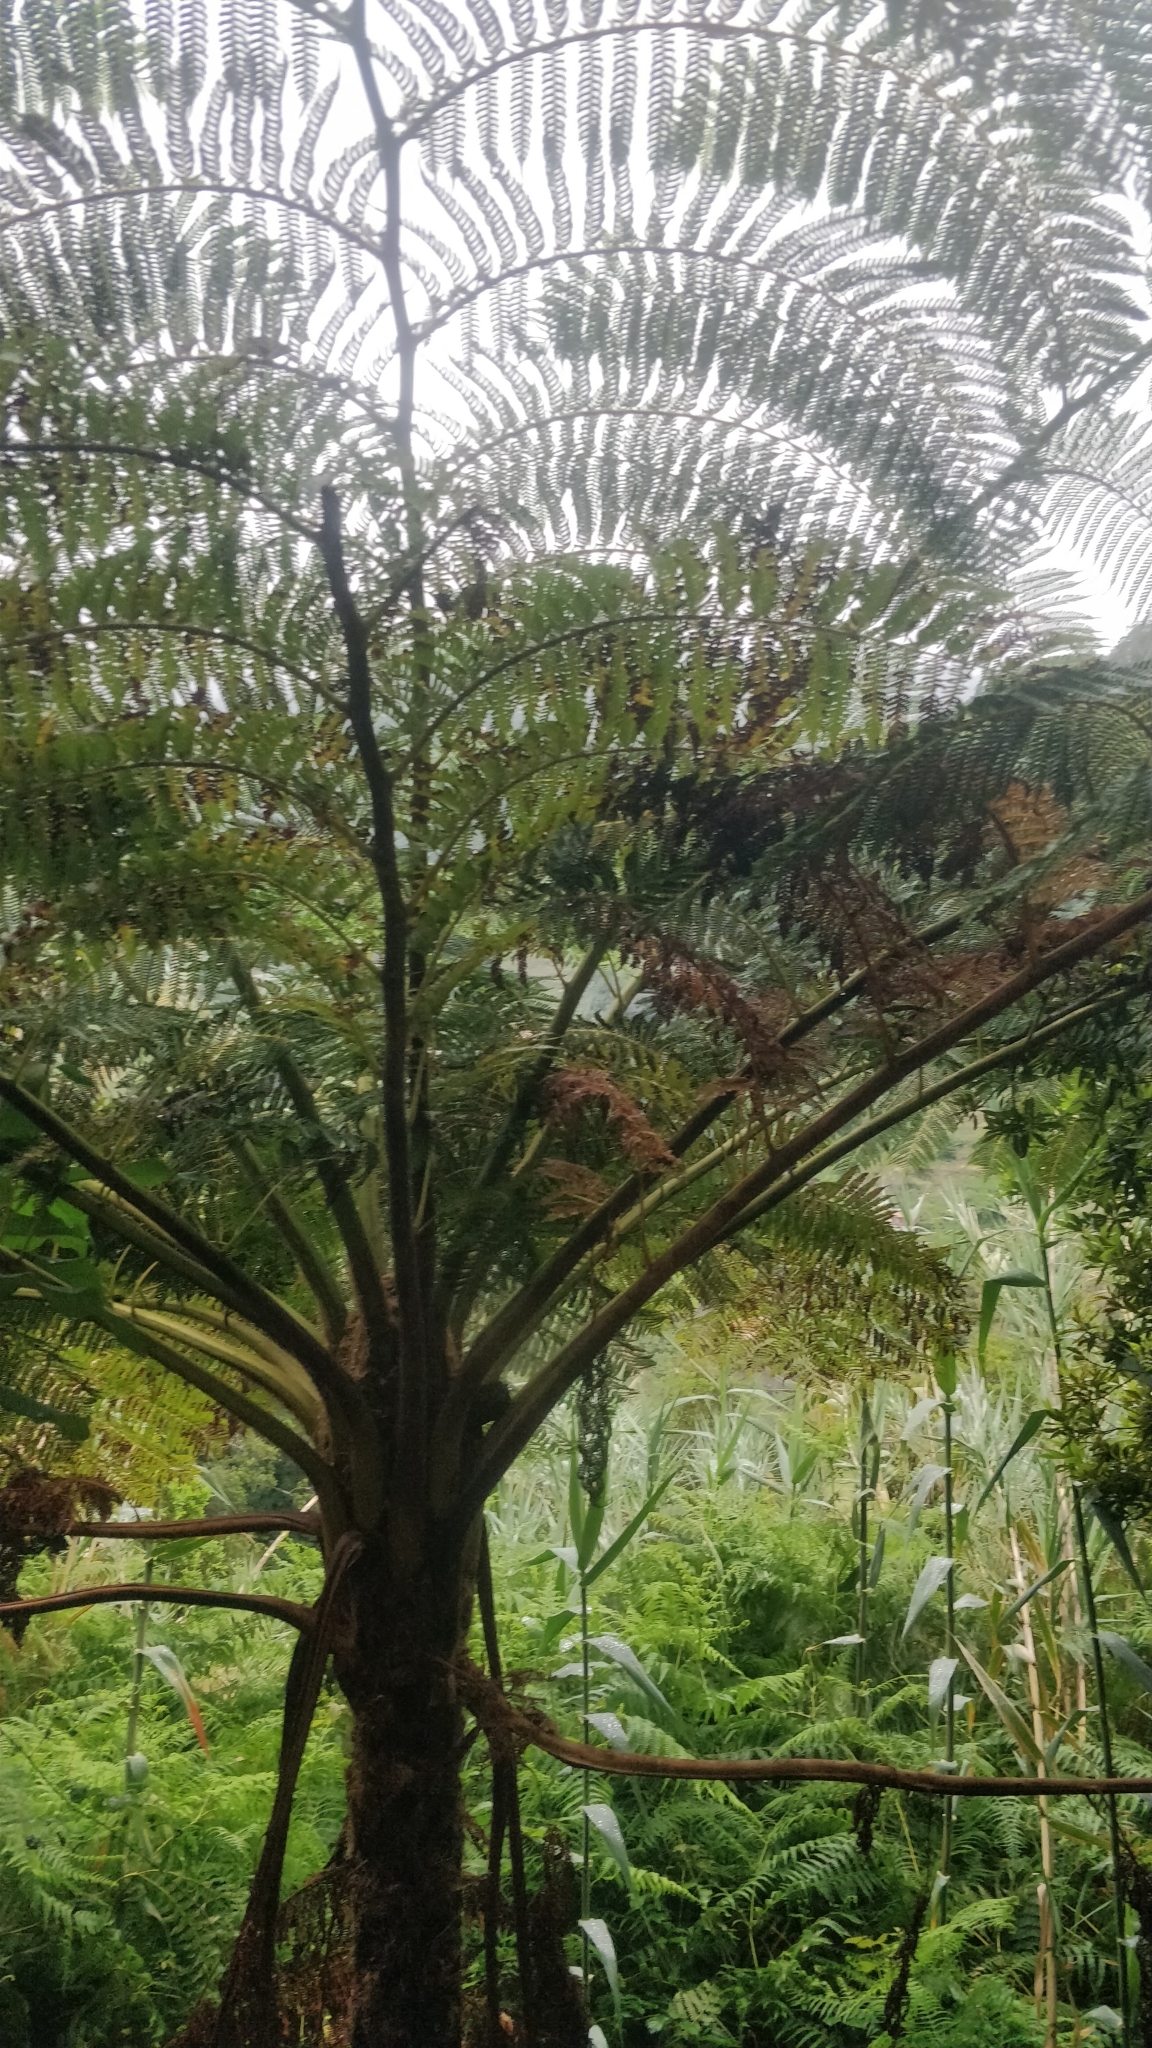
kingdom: Plantae
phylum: Tracheophyta
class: Polypodiopsida
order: Cyatheales
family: Cyatheaceae
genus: Sphaeropteris
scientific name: Sphaeropteris cooperi
